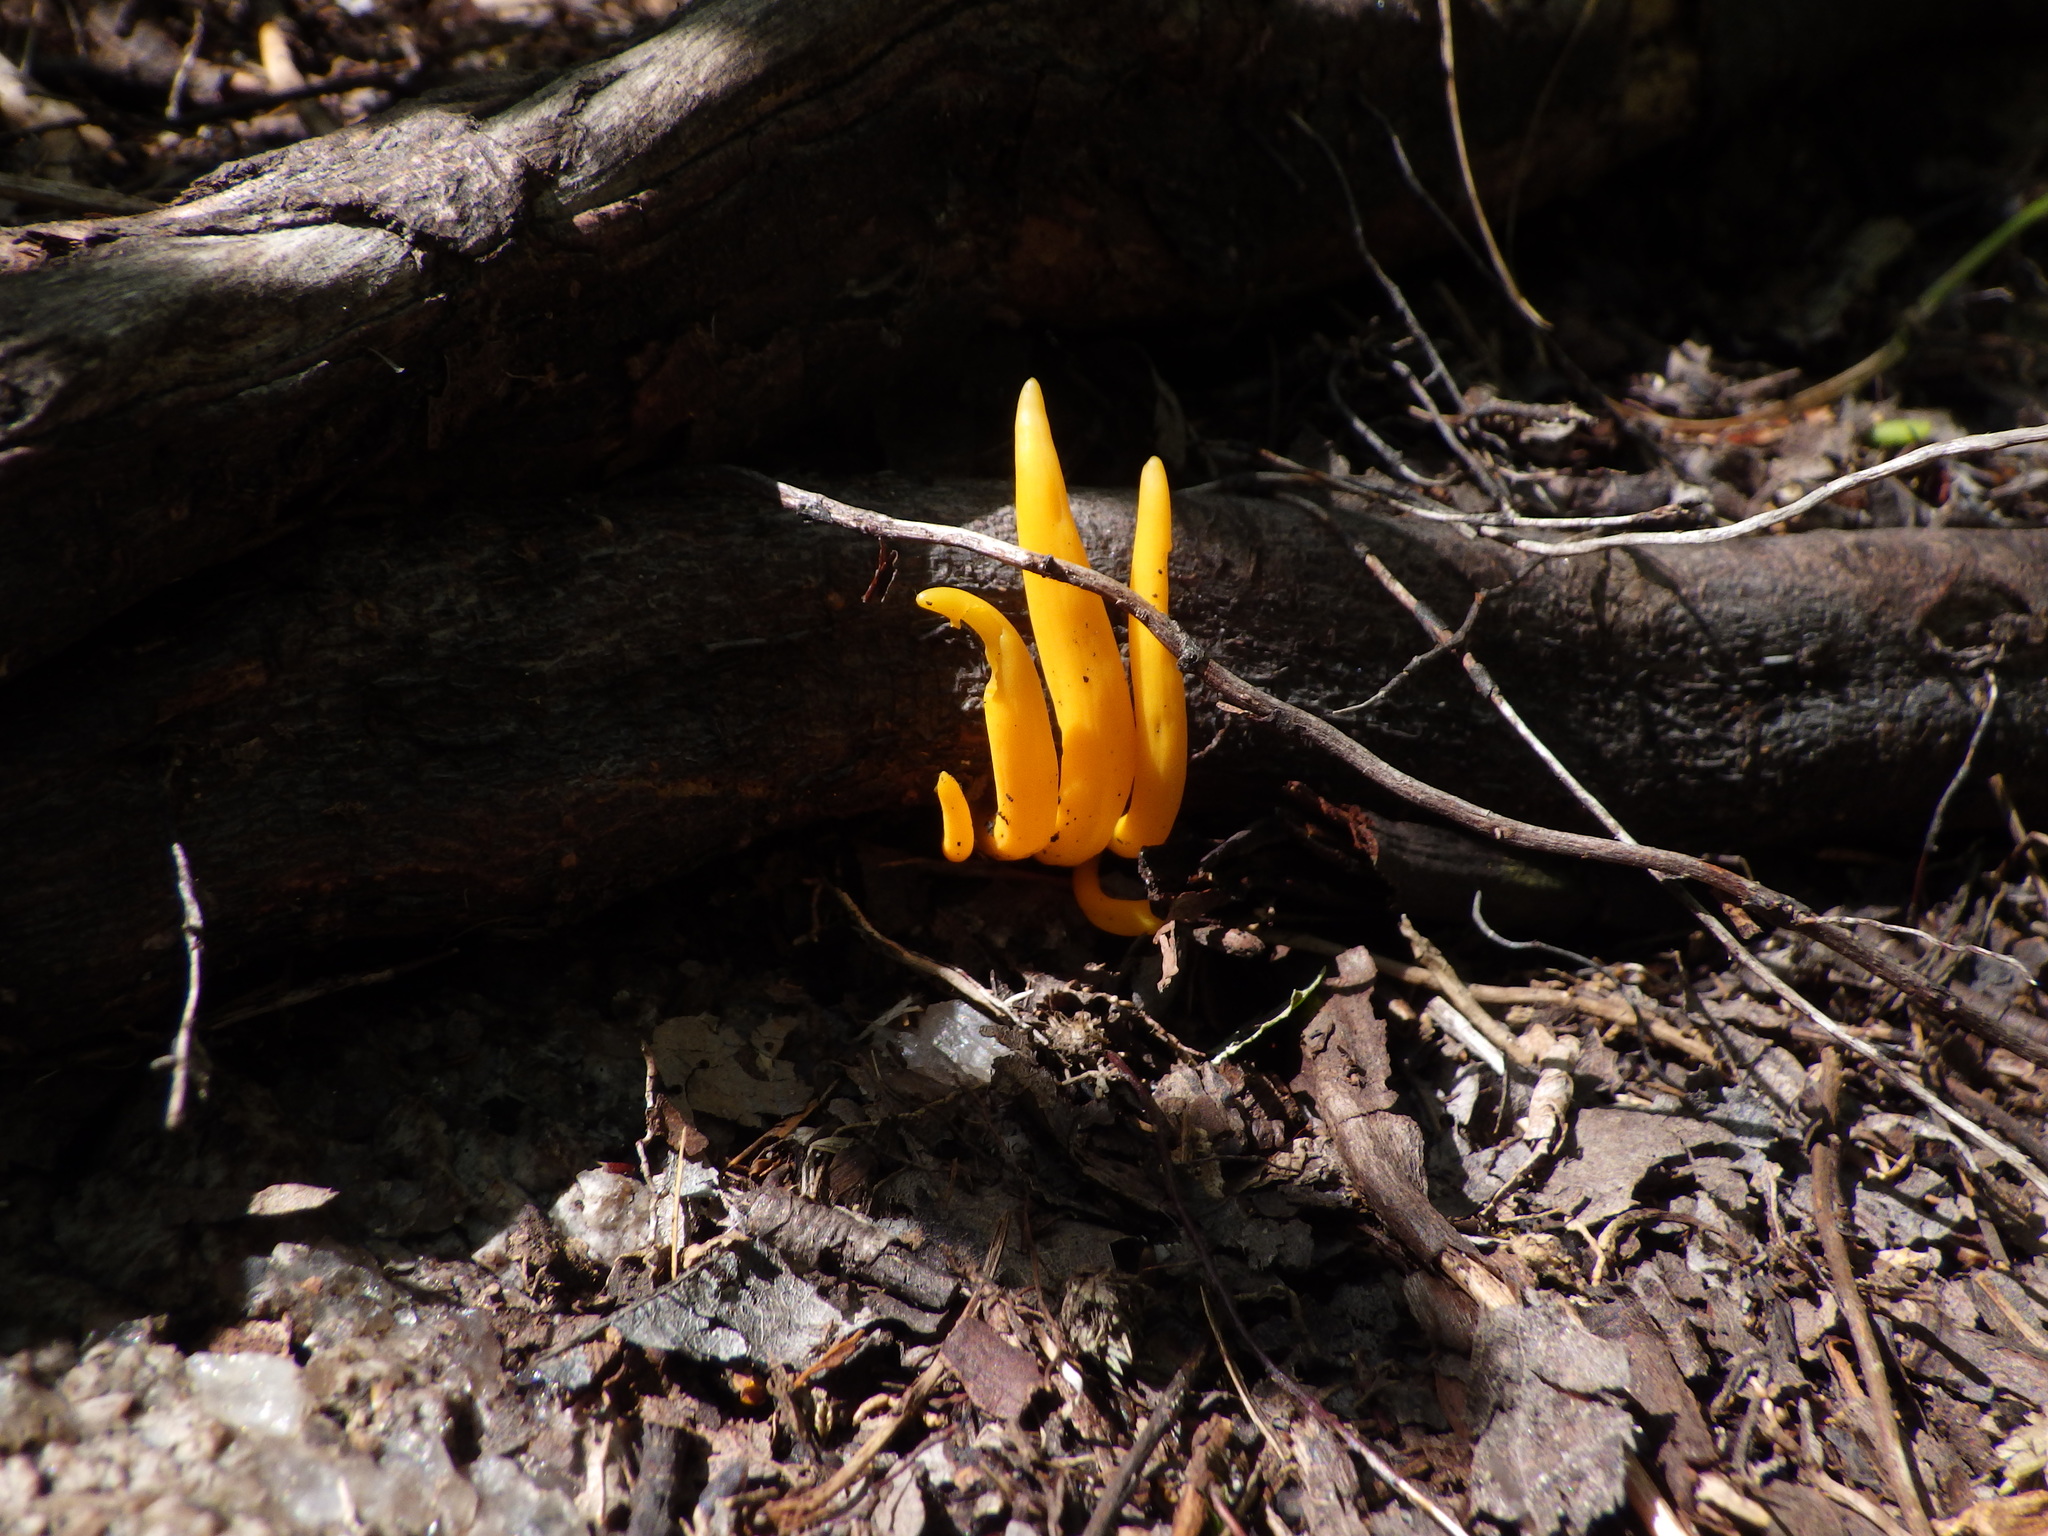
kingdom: Fungi
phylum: Basidiomycota
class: Agaricomycetes
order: Agaricales
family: Clavariaceae
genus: Clavulinopsis
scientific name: Clavulinopsis fusiformis
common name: Golden spindles
